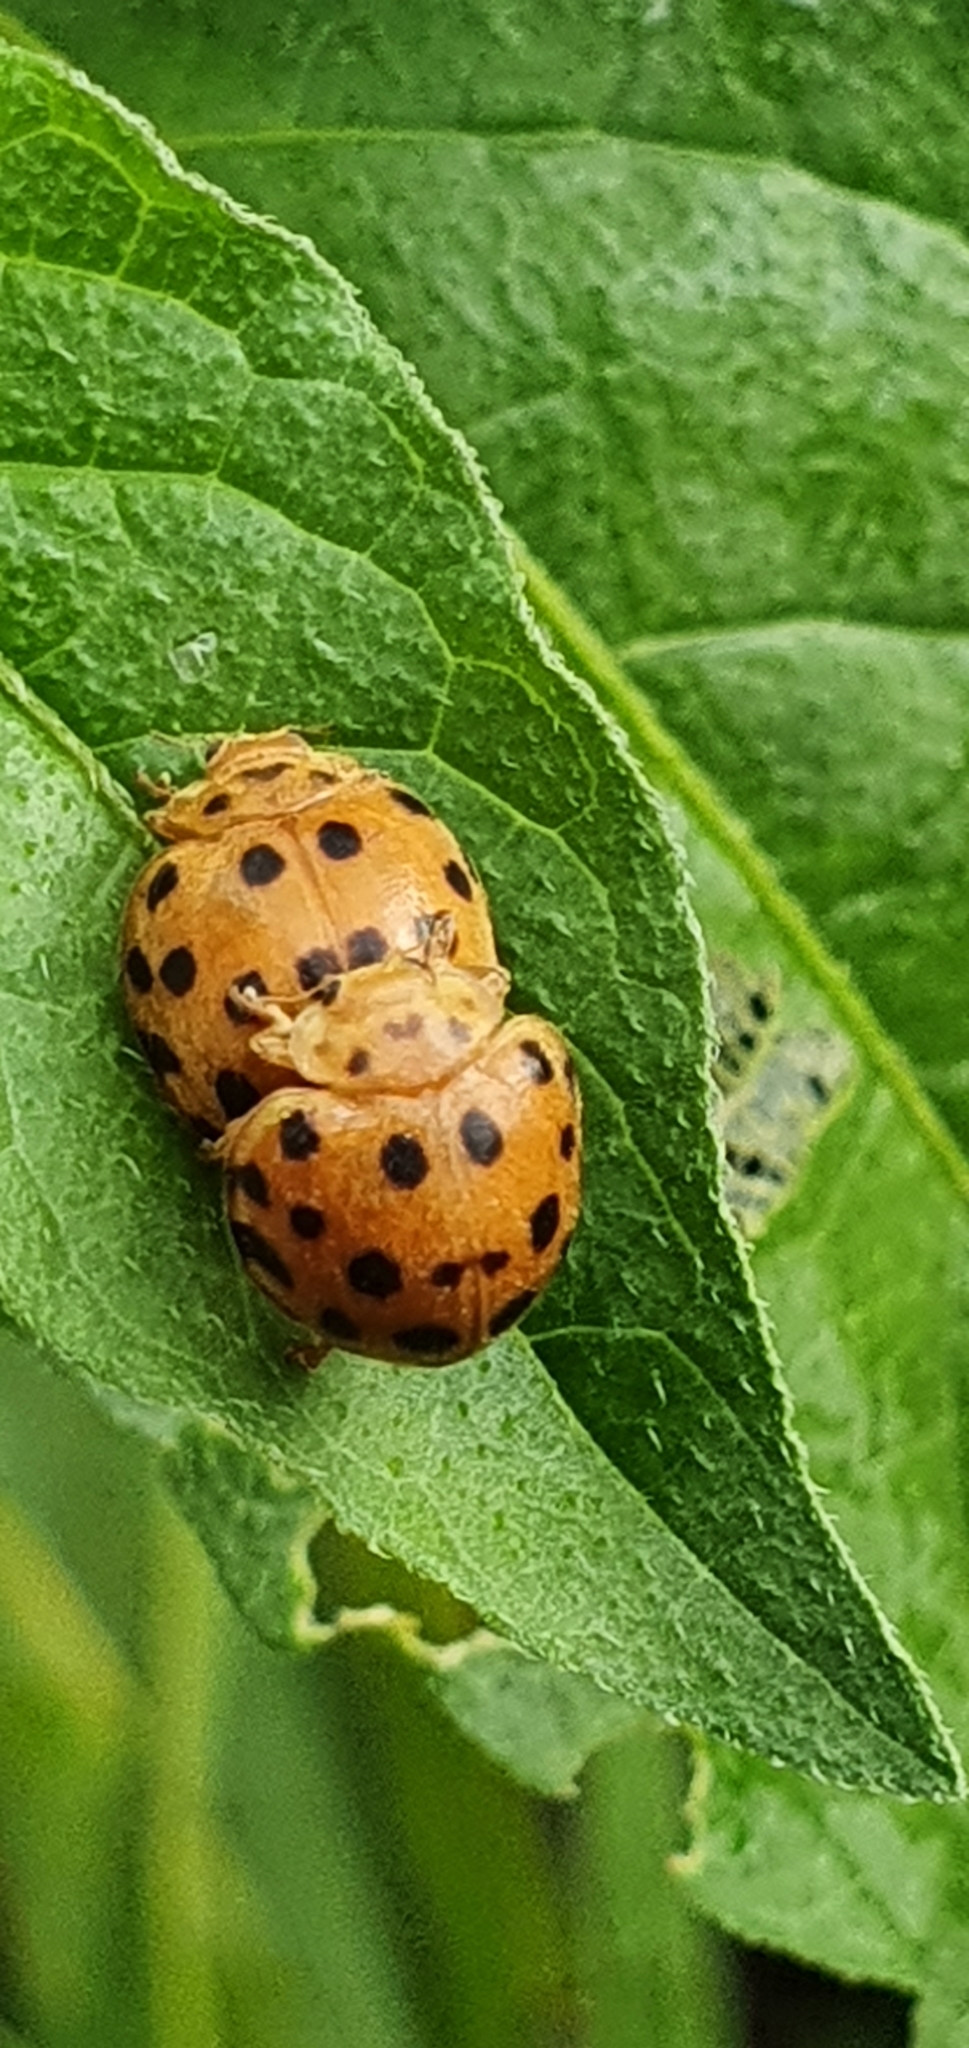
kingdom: Animalia
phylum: Arthropoda
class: Insecta
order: Coleoptera
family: Coccinellidae
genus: Henosepilachna
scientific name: Henosepilachna vigintioctopunctata
